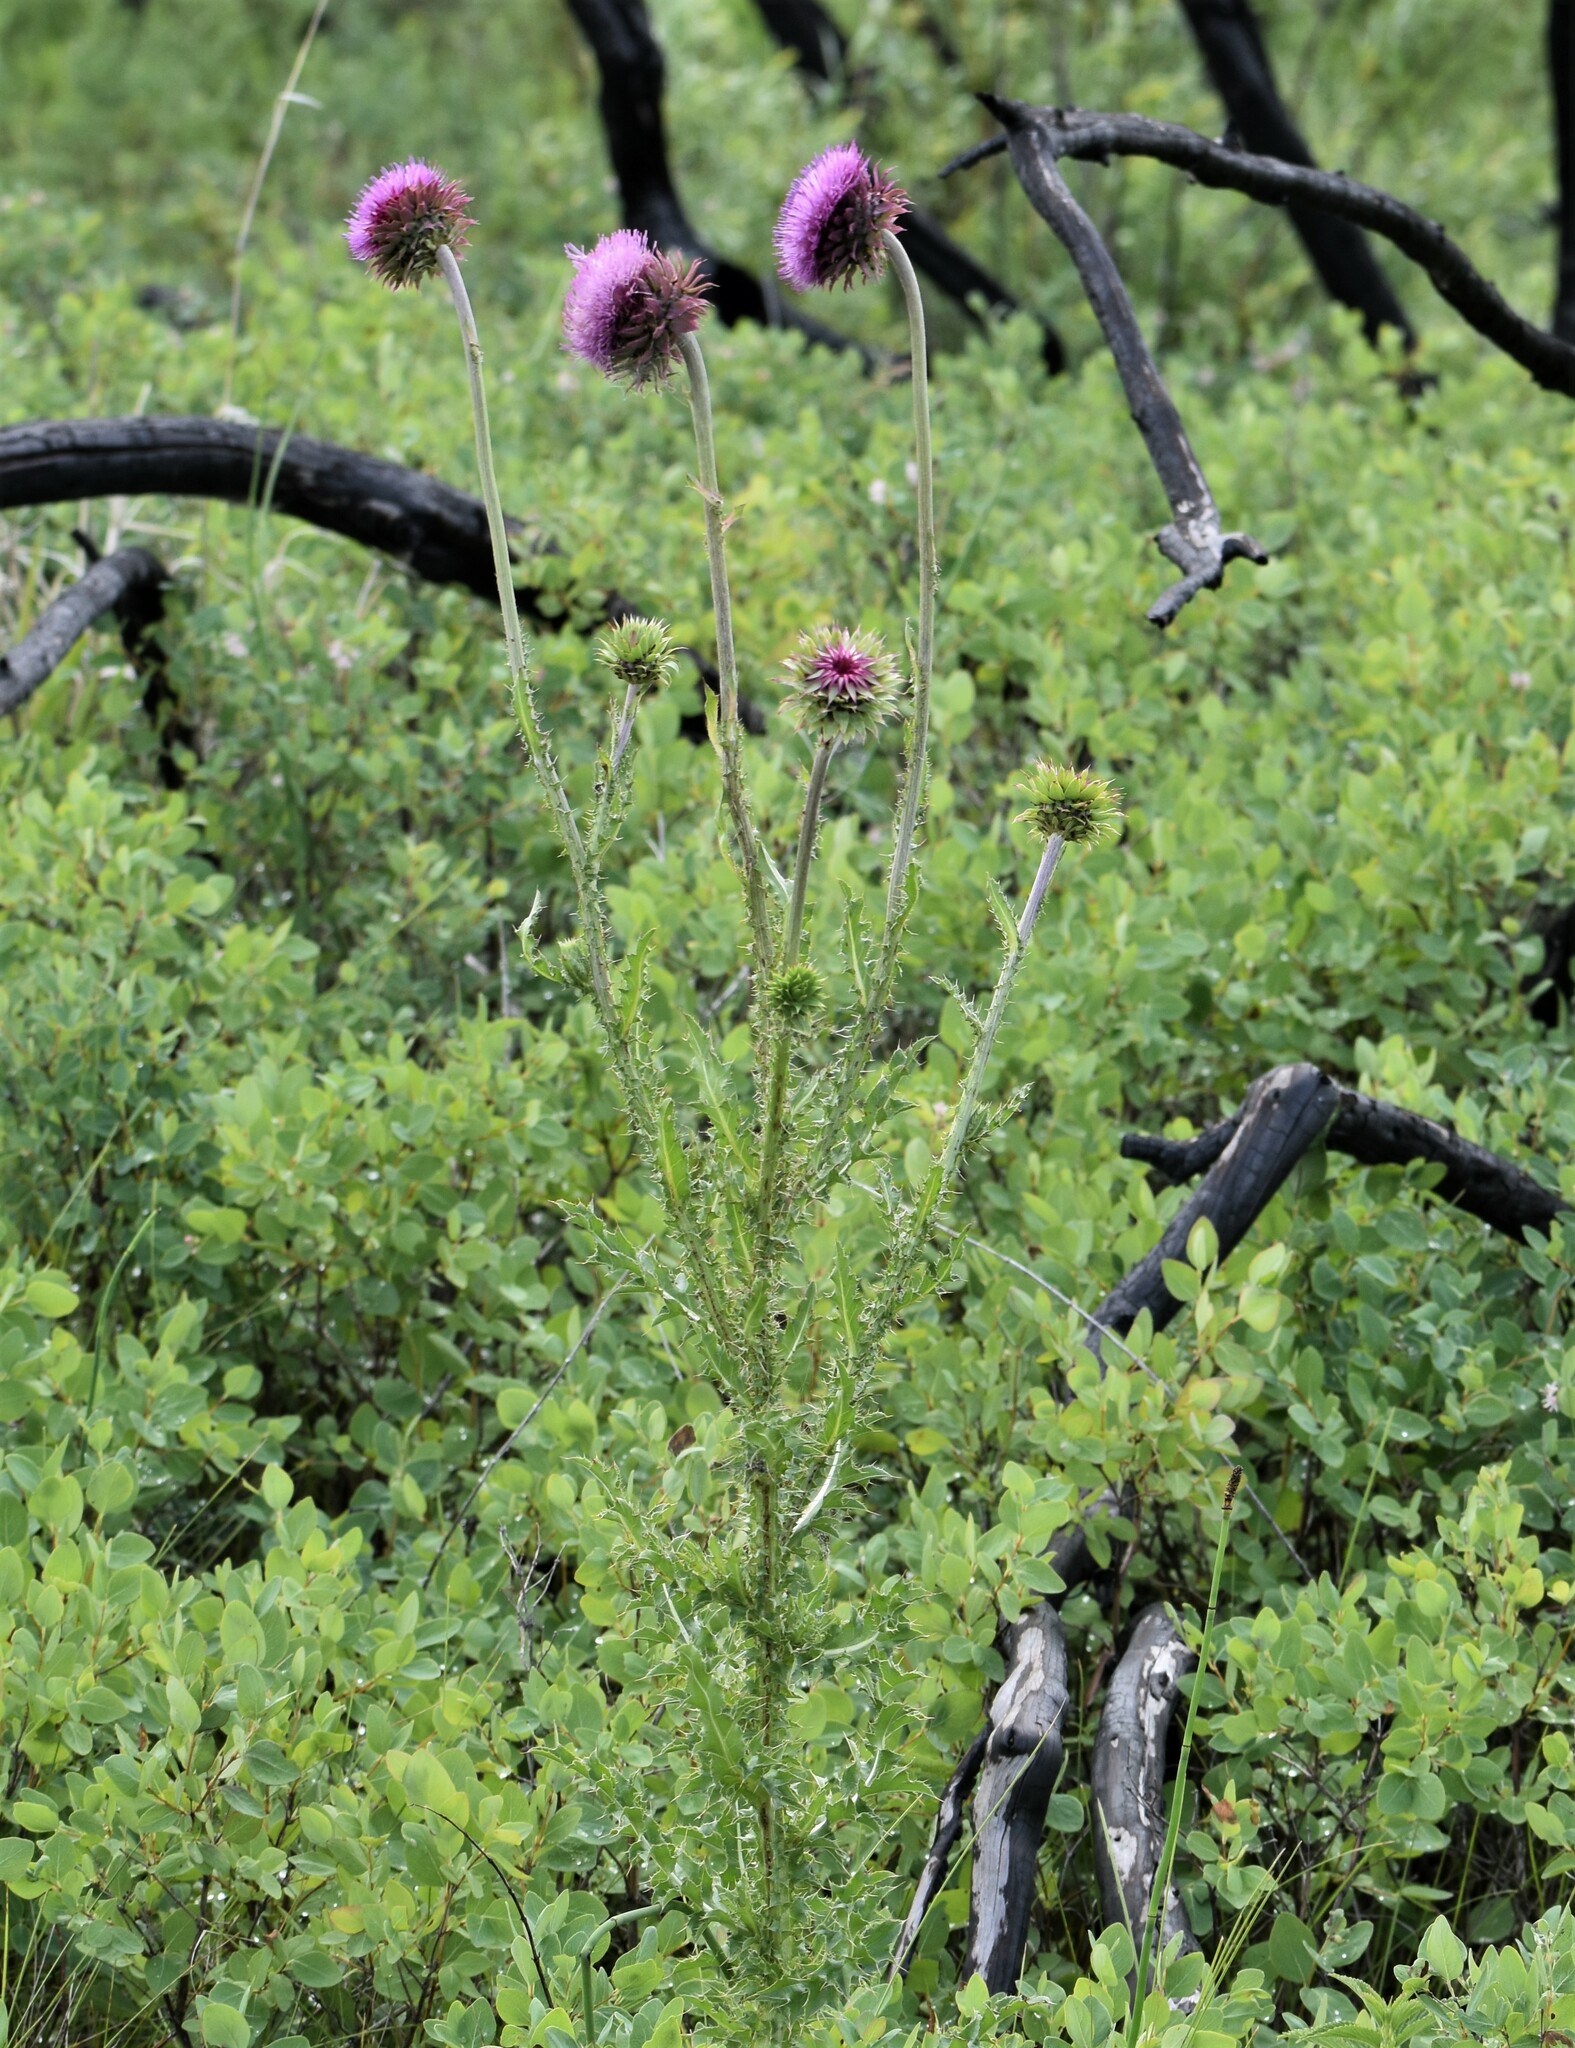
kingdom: Plantae
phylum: Tracheophyta
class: Magnoliopsida
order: Asterales
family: Asteraceae
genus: Carduus
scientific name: Carduus nutans
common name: Musk thistle
